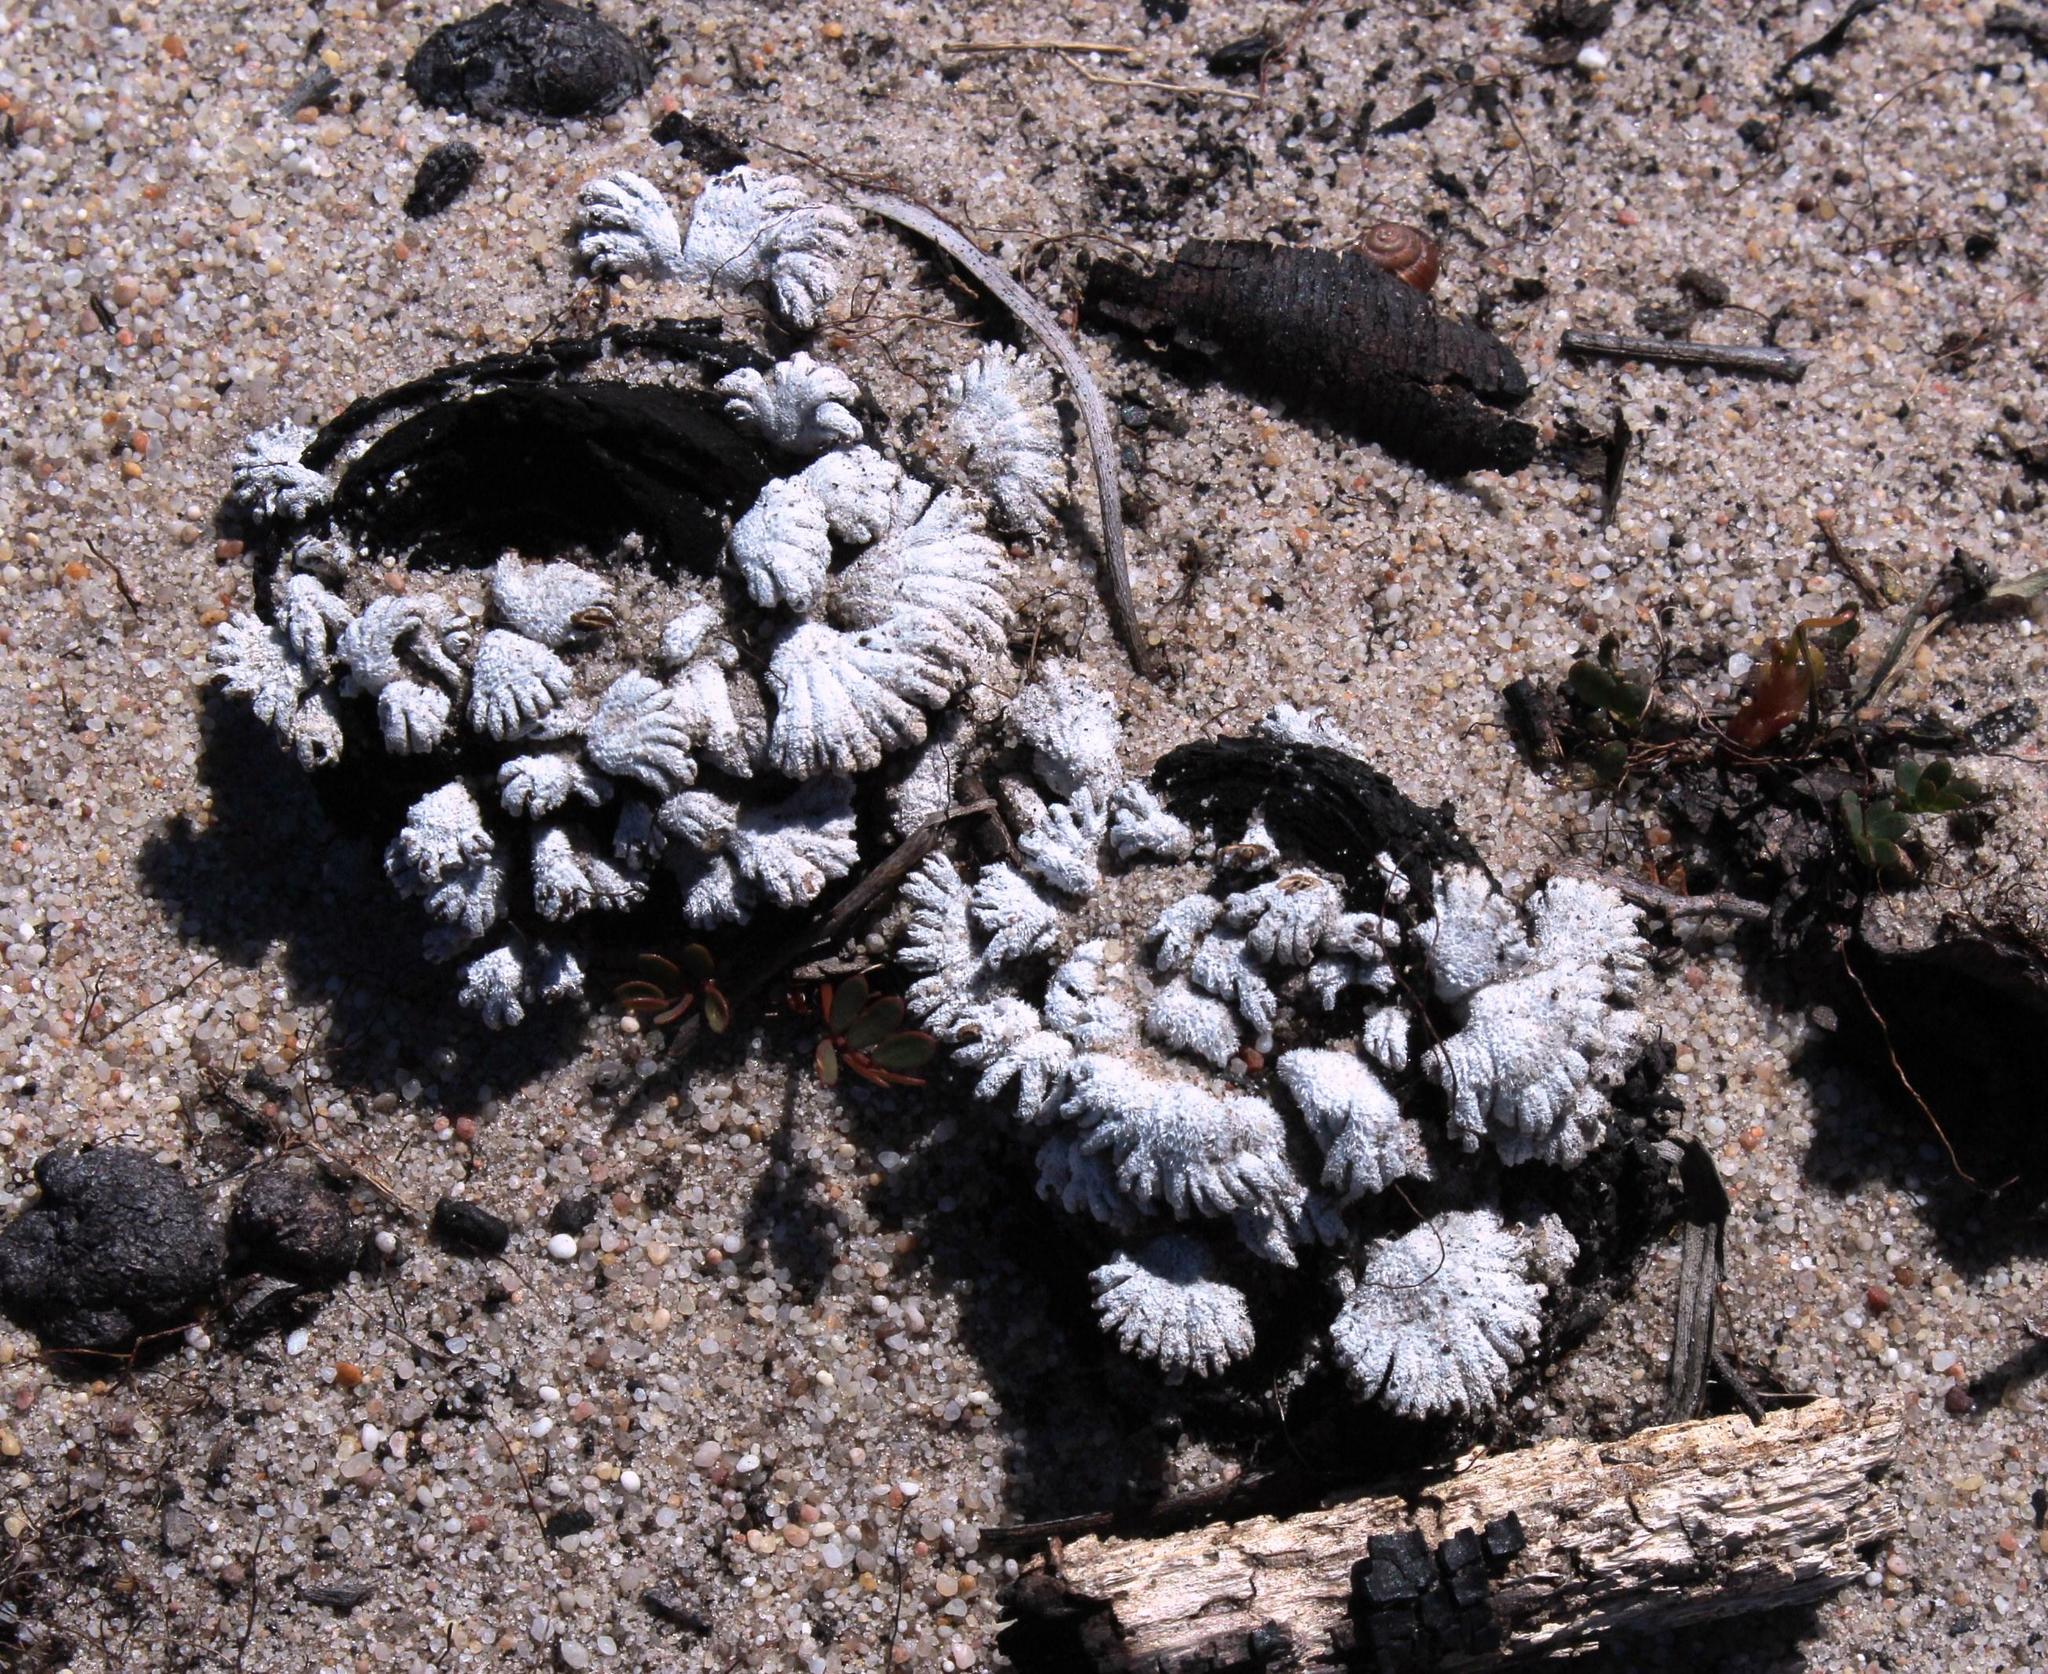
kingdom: Fungi
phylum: Basidiomycota
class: Agaricomycetes
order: Agaricales
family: Schizophyllaceae
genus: Schizophyllum
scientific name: Schizophyllum commune
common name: Common porecrust
